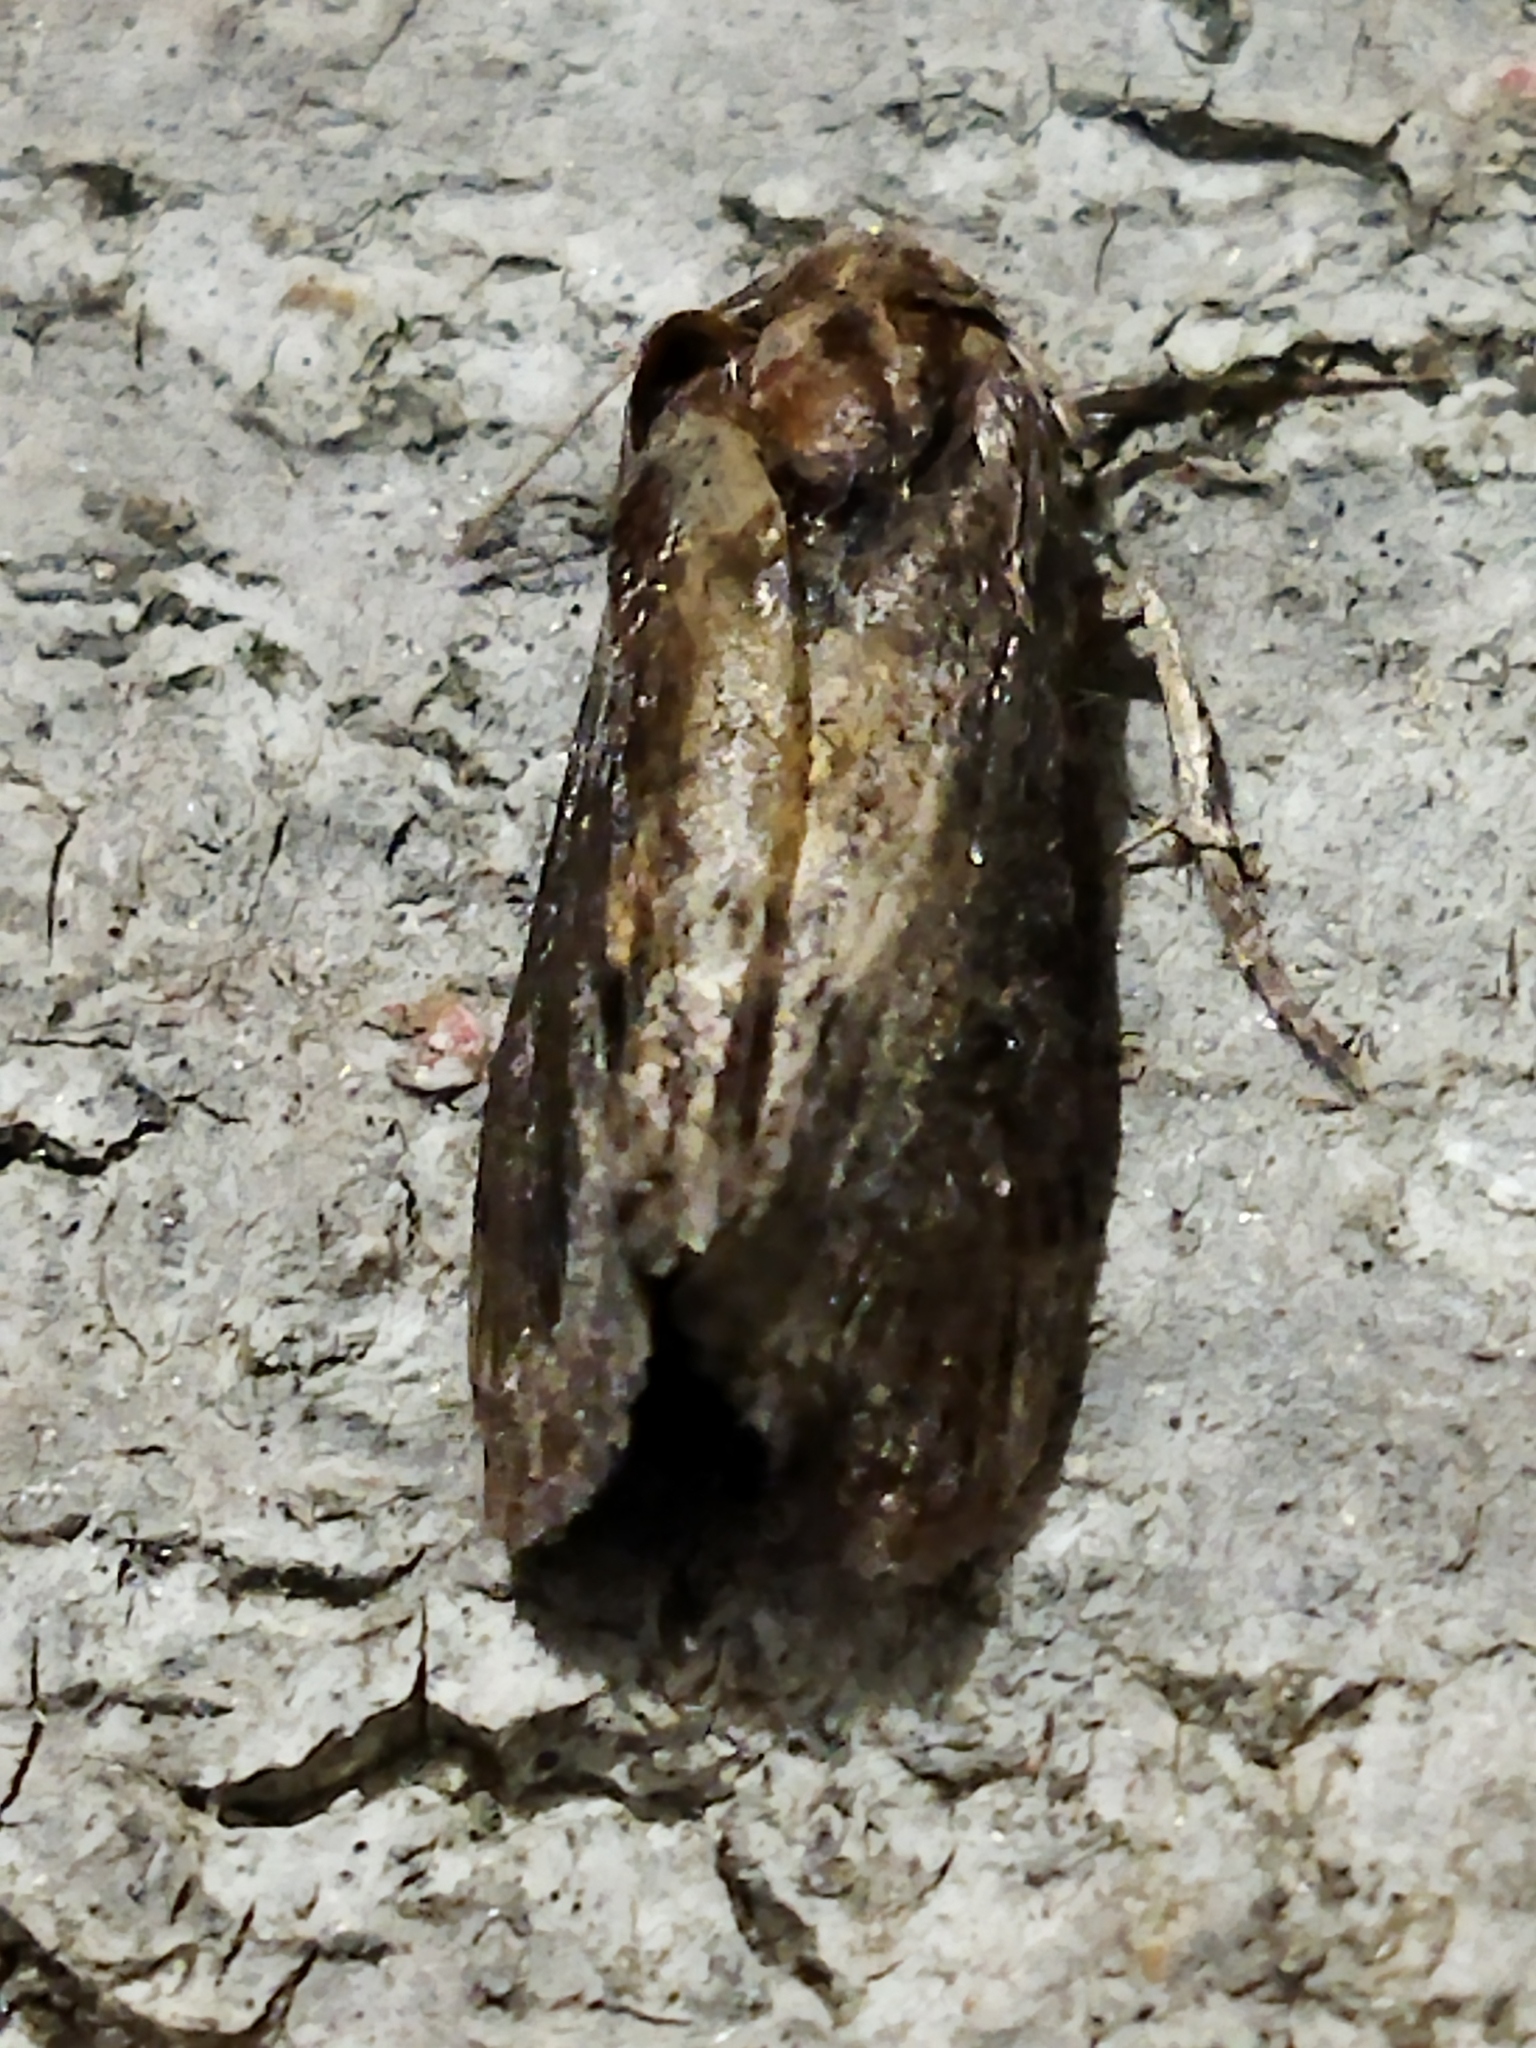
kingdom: Animalia
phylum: Arthropoda
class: Insecta
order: Lepidoptera
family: Pyralidae
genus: Galleria
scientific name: Galleria mellonella
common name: Greater wax moth
